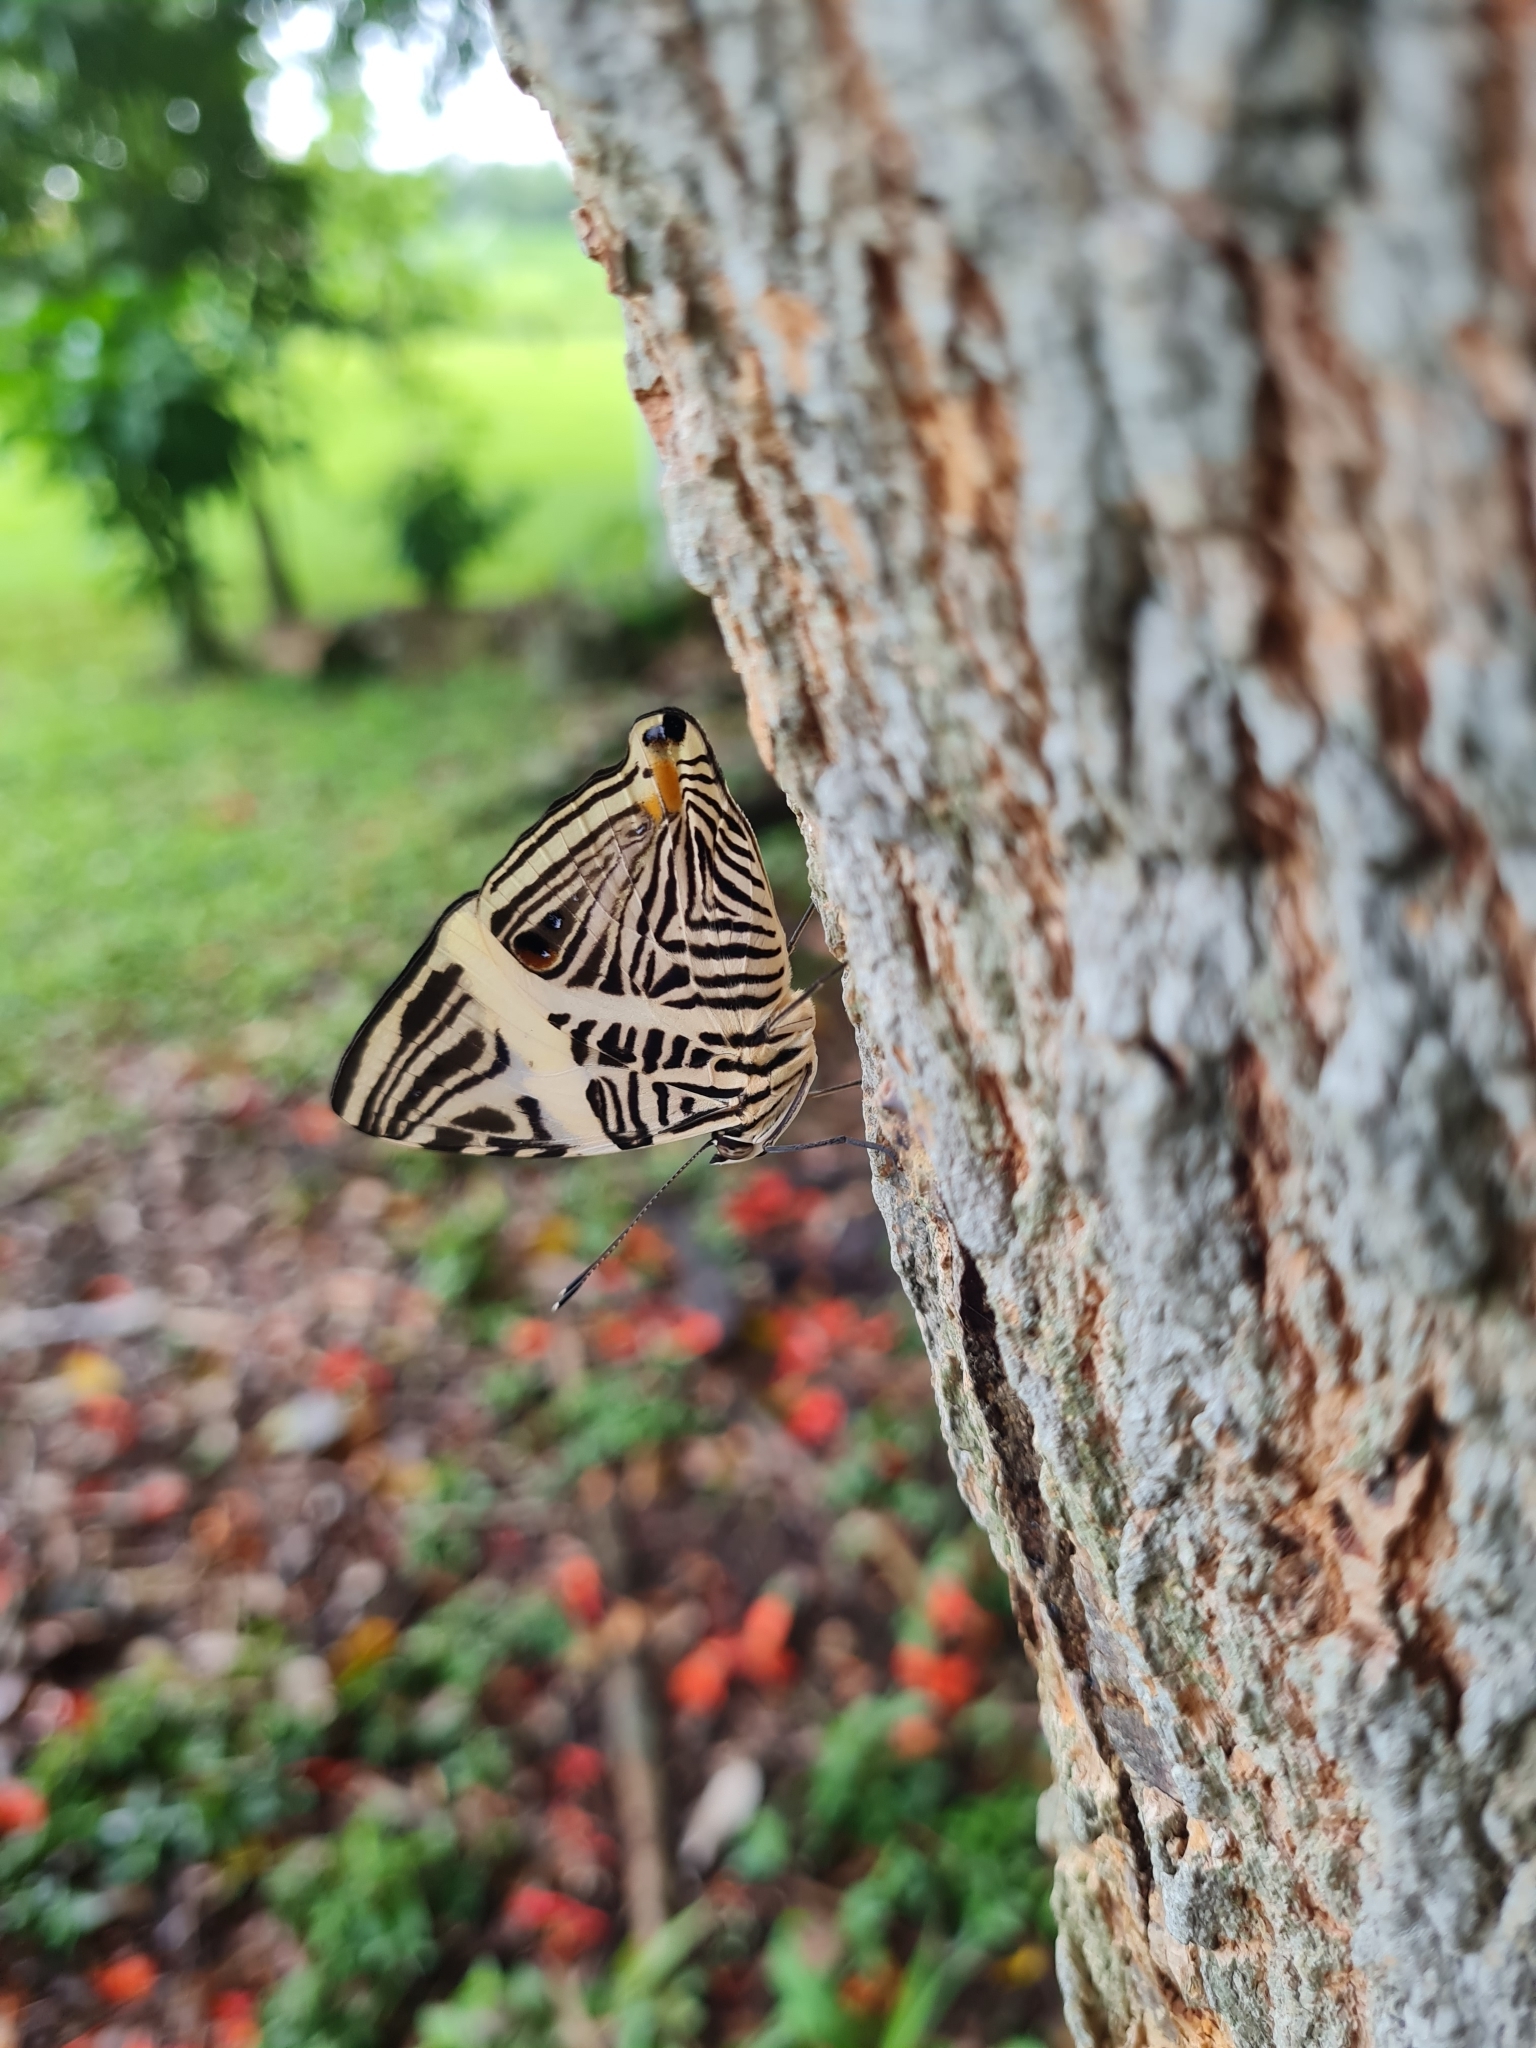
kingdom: Animalia
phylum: Arthropoda
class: Insecta
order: Lepidoptera
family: Nymphalidae
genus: Colobura
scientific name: Colobura dirce
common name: Dirce beauty
